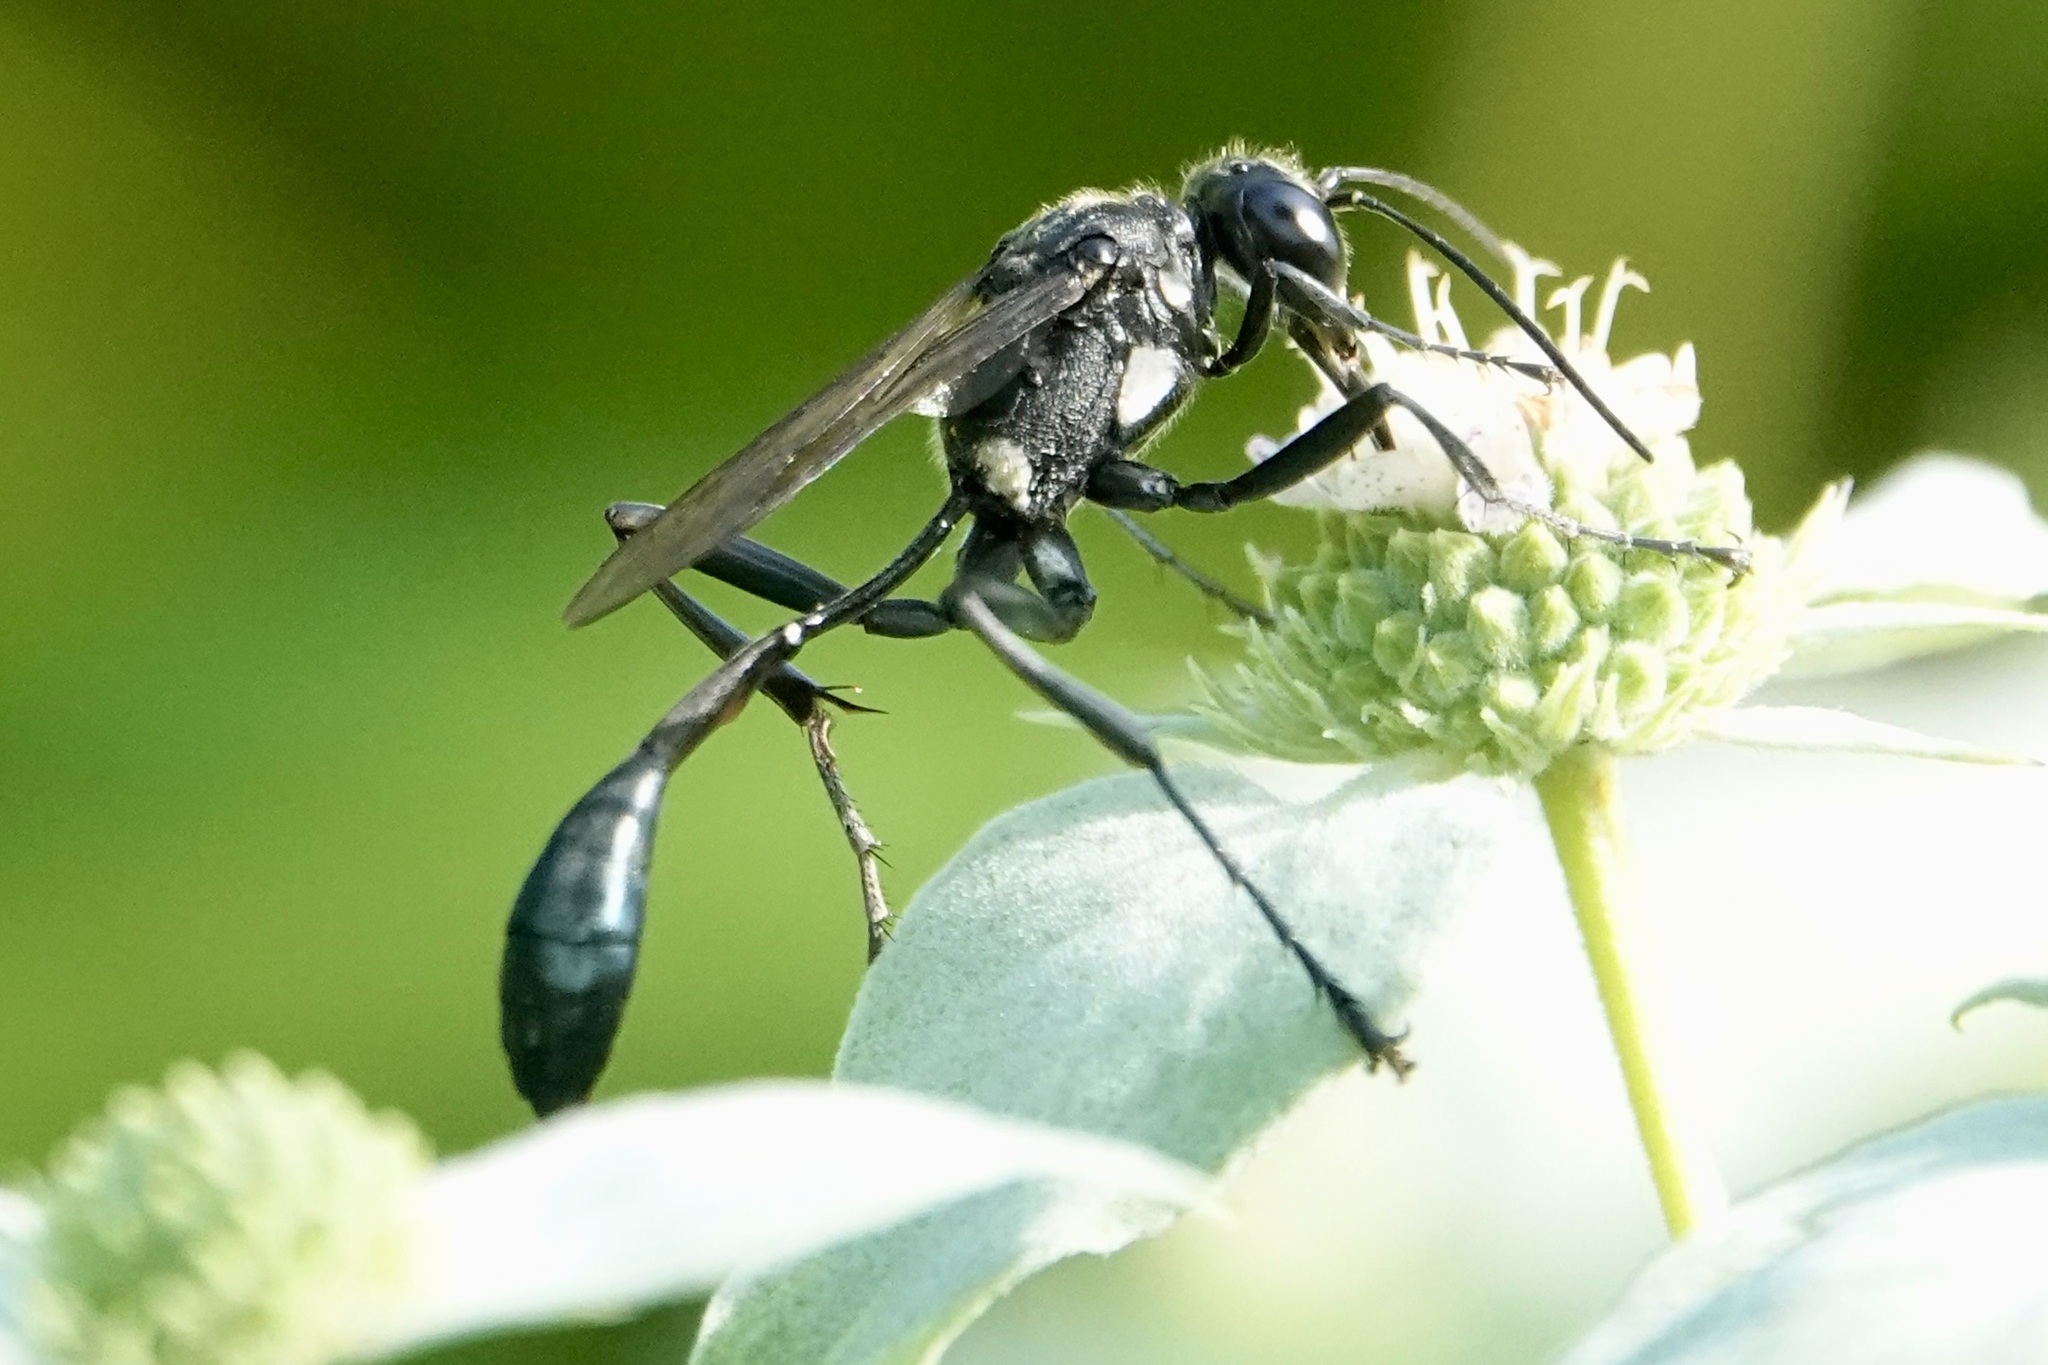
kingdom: Animalia
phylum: Arthropoda
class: Insecta
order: Hymenoptera
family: Sphecidae
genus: Eremnophila
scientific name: Eremnophila aureonotata
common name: Gold-marked thread-waisted wasp
